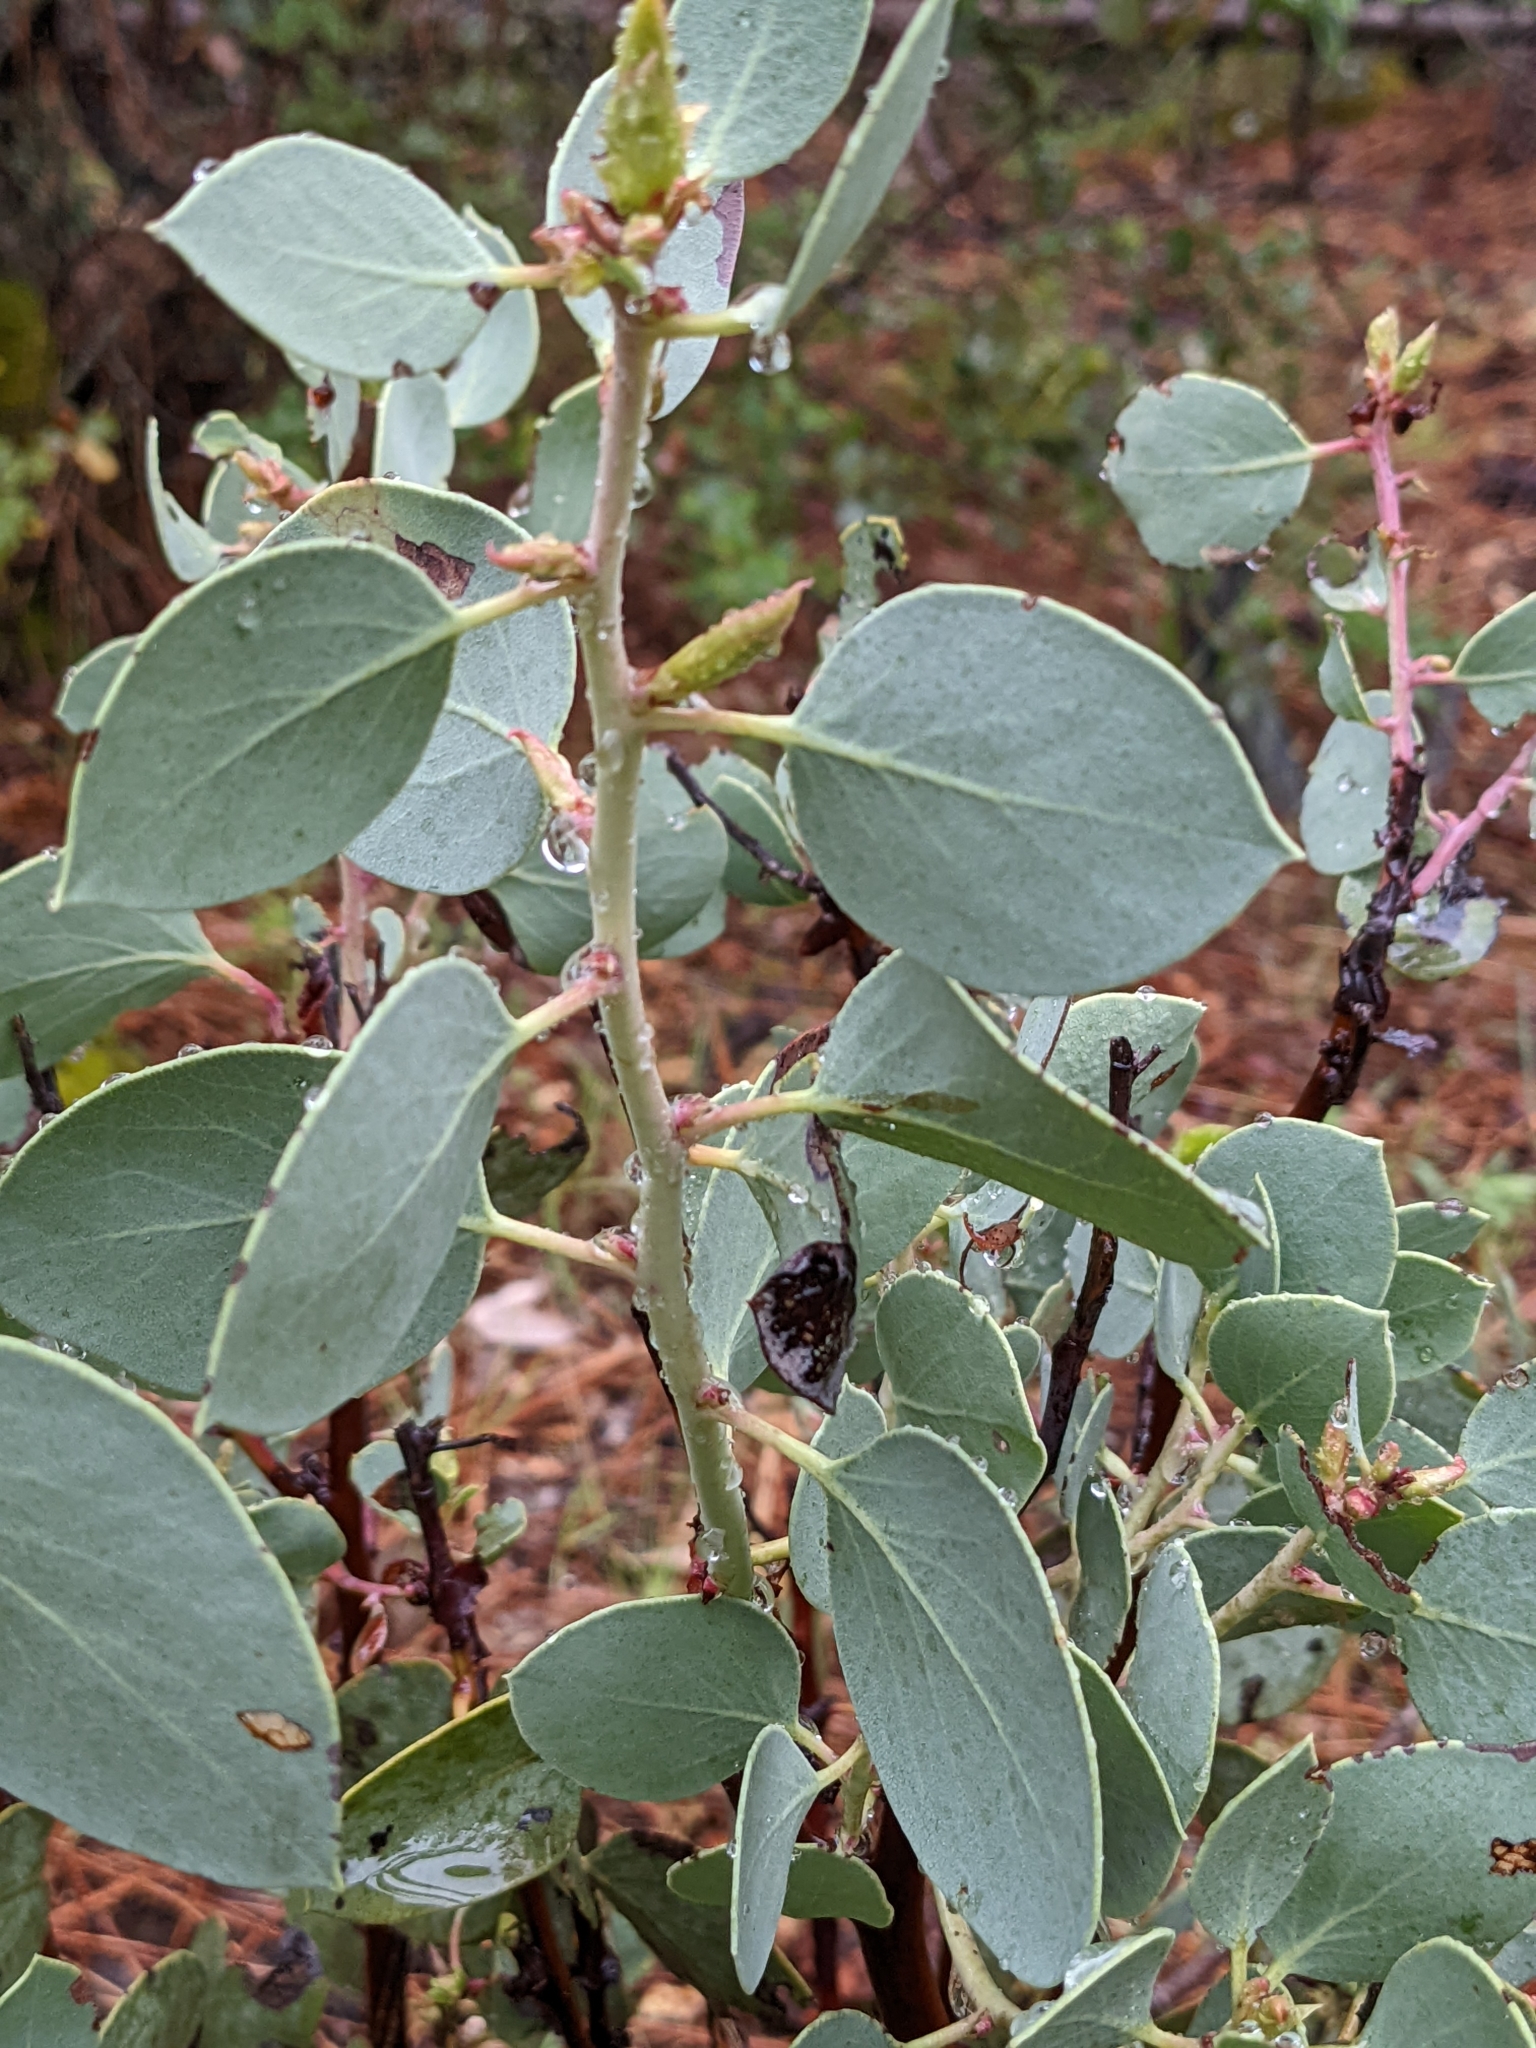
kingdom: Plantae
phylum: Tracheophyta
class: Magnoliopsida
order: Ericales
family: Ericaceae
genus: Arctostaphylos
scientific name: Arctostaphylos viscida
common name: White-leaf manzanita
